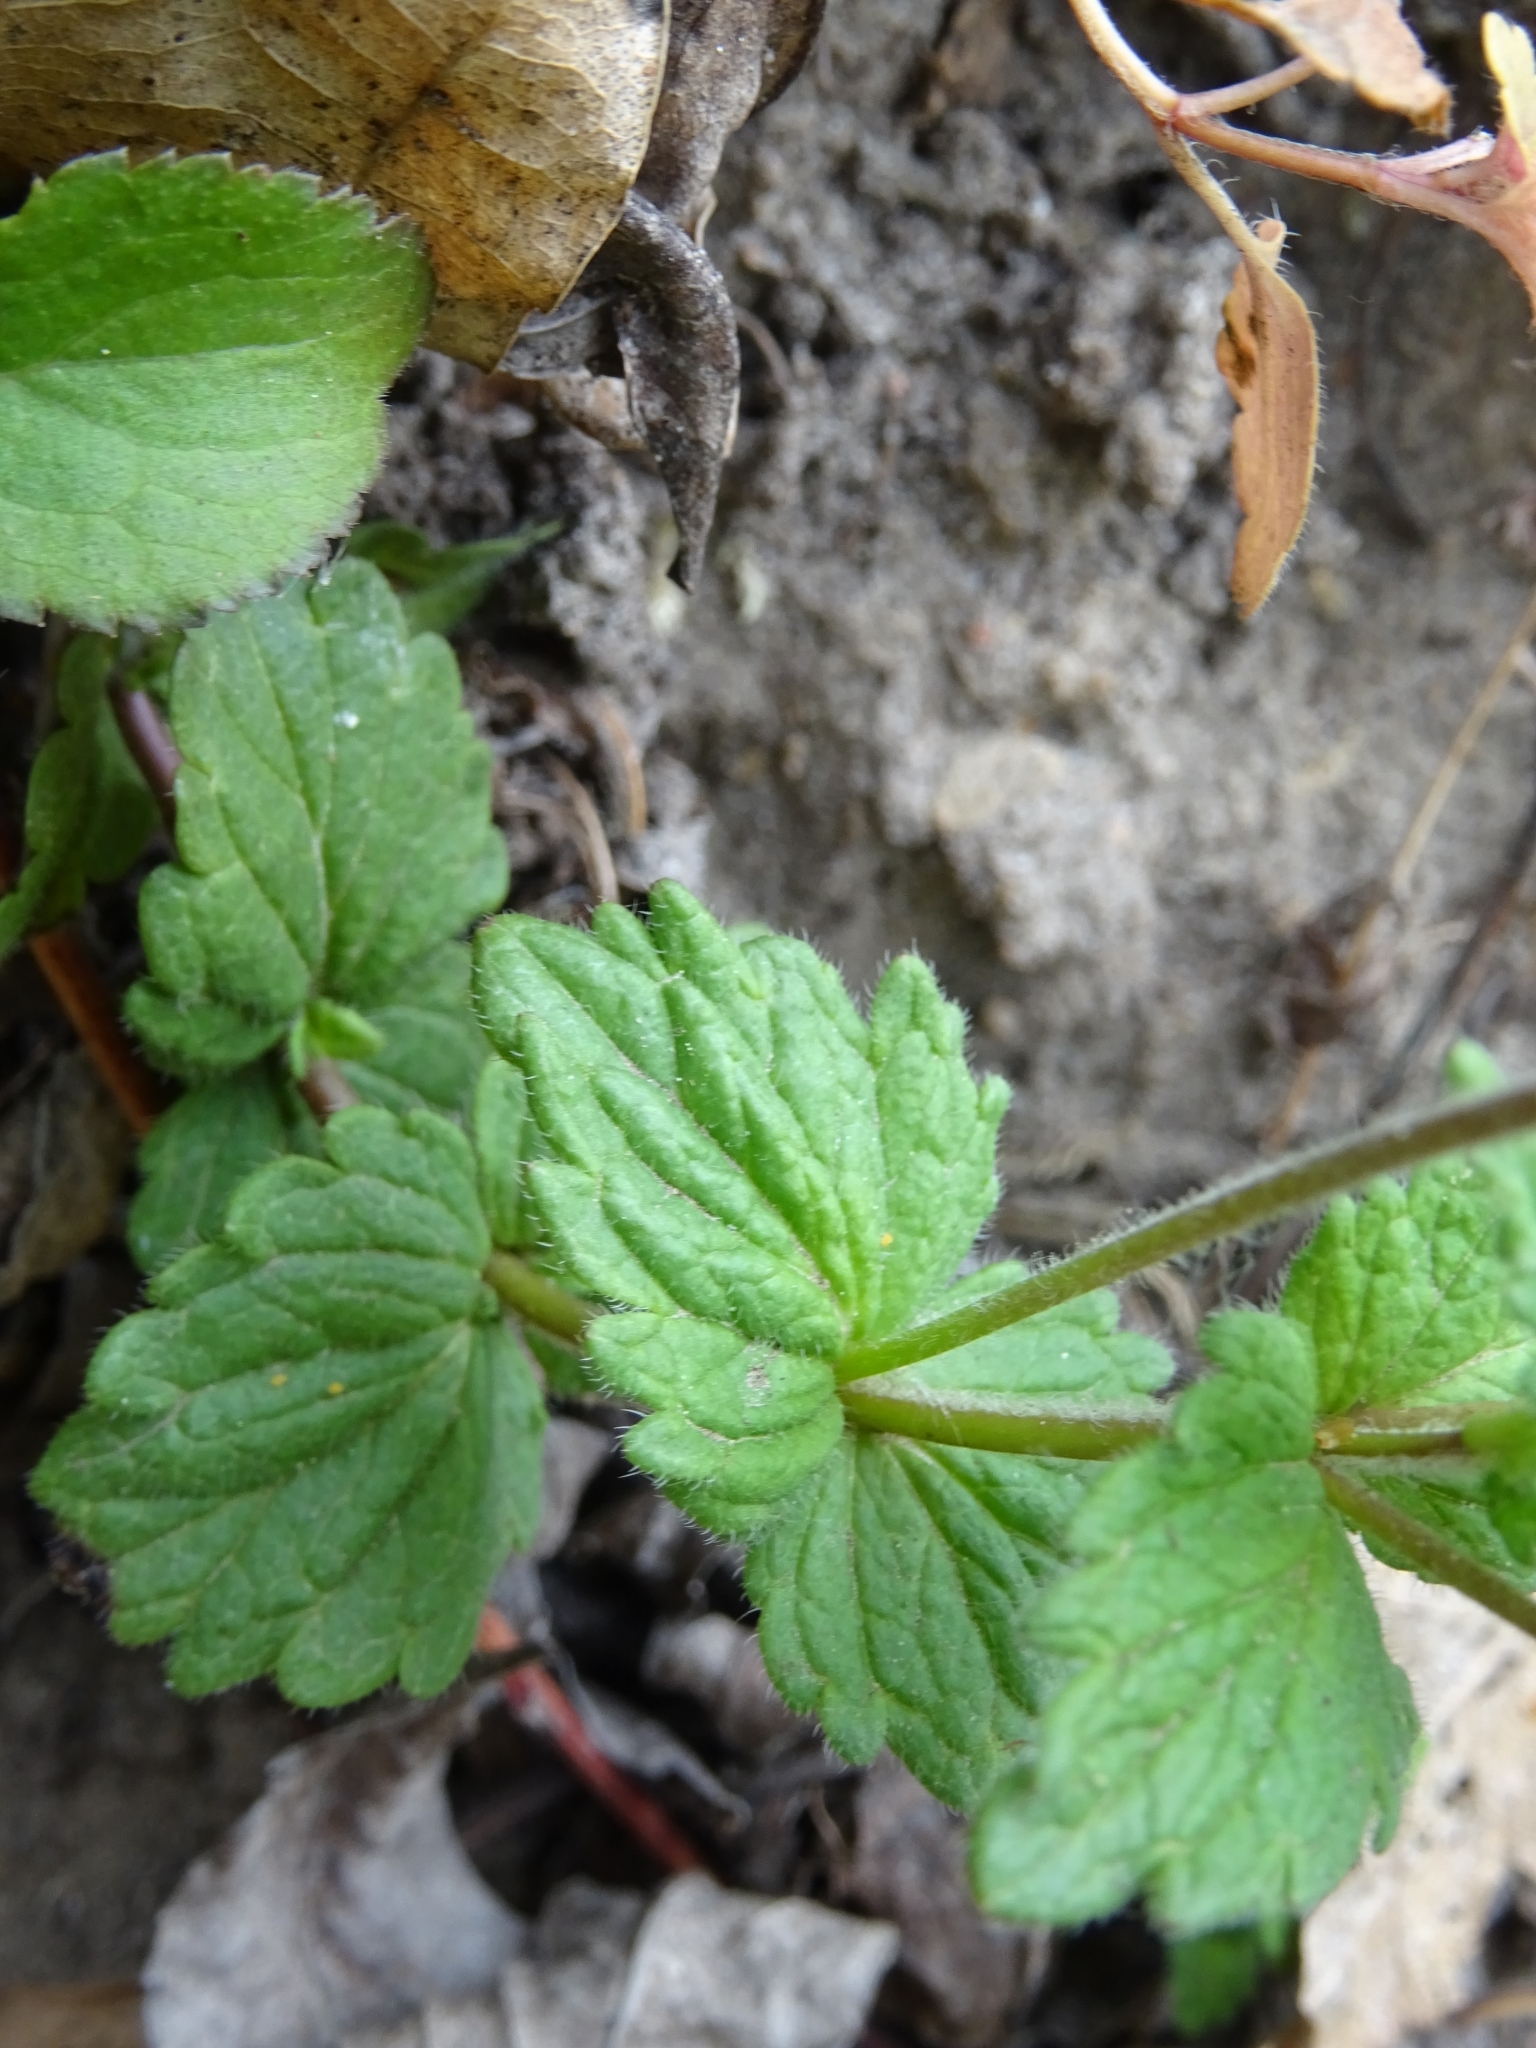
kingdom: Plantae
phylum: Tracheophyta
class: Magnoliopsida
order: Lamiales
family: Plantaginaceae
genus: Veronica
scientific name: Veronica chamaedrys
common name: Germander speedwell
